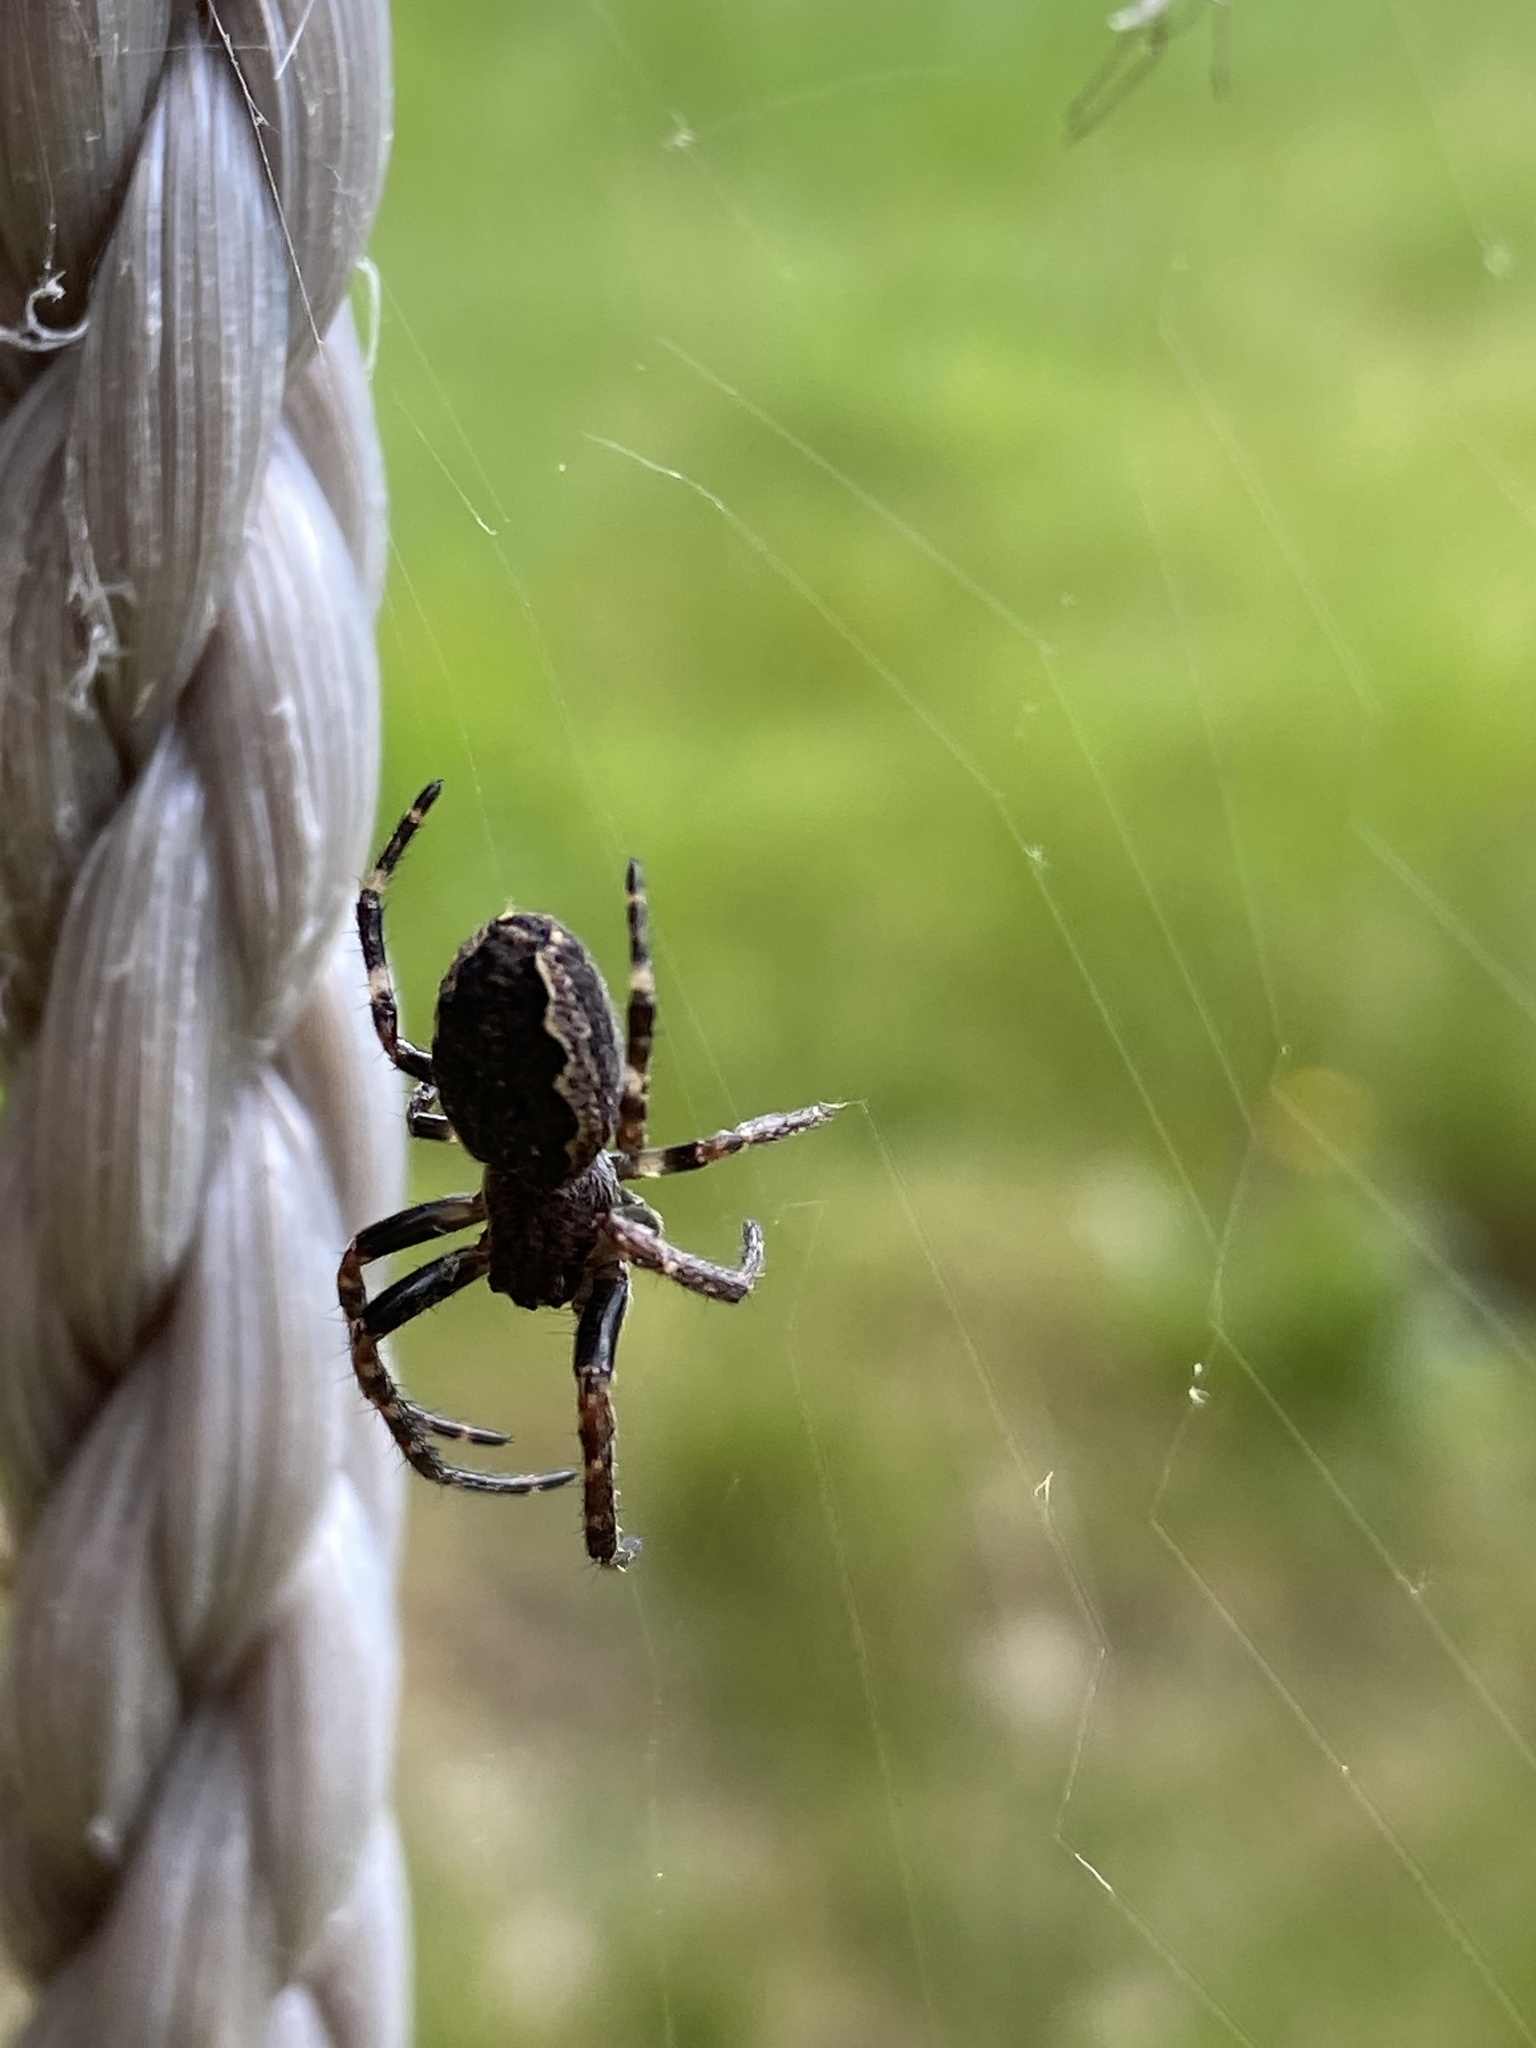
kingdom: Animalia
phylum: Arthropoda
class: Arachnida
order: Araneae
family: Araneidae
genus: Nuctenea
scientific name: Nuctenea umbratica
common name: Toad spider
